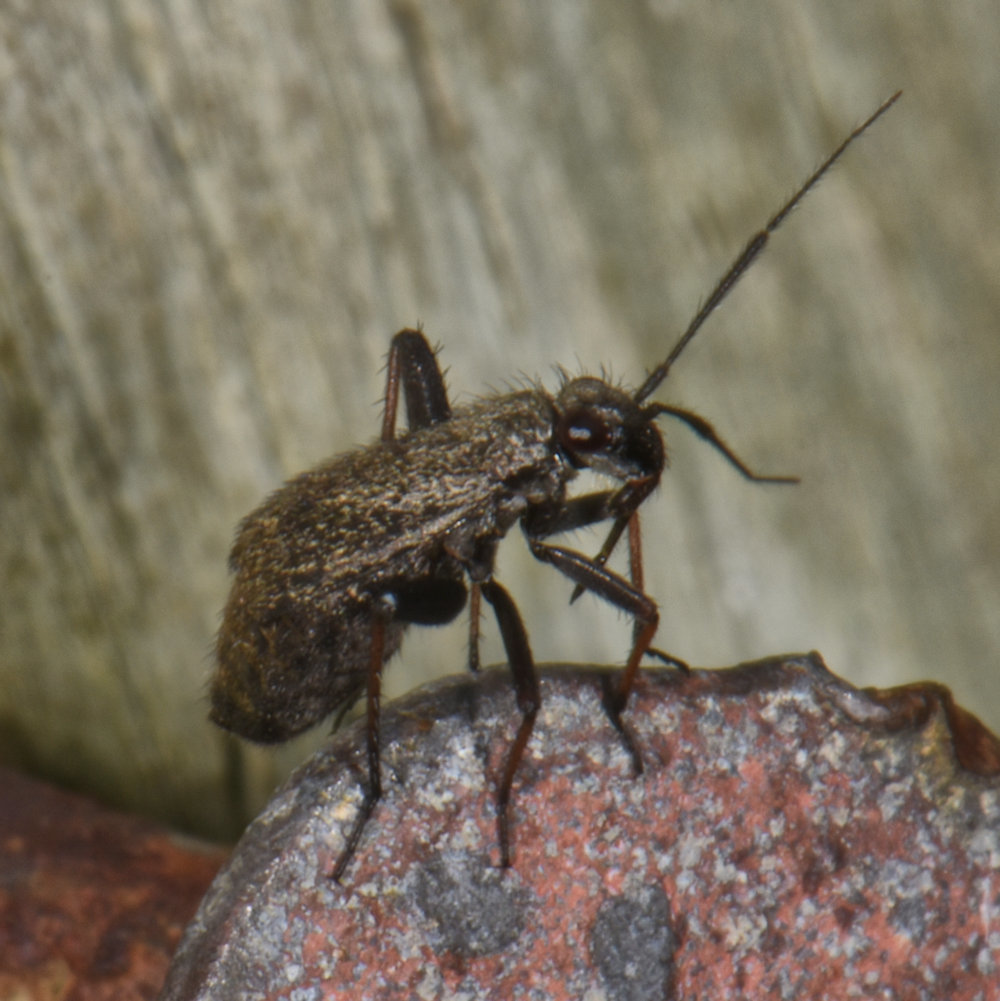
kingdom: Animalia
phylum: Arthropoda
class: Insecta
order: Hemiptera
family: Miridae
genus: Orthocephalus
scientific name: Orthocephalus saltator
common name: Plant bug
